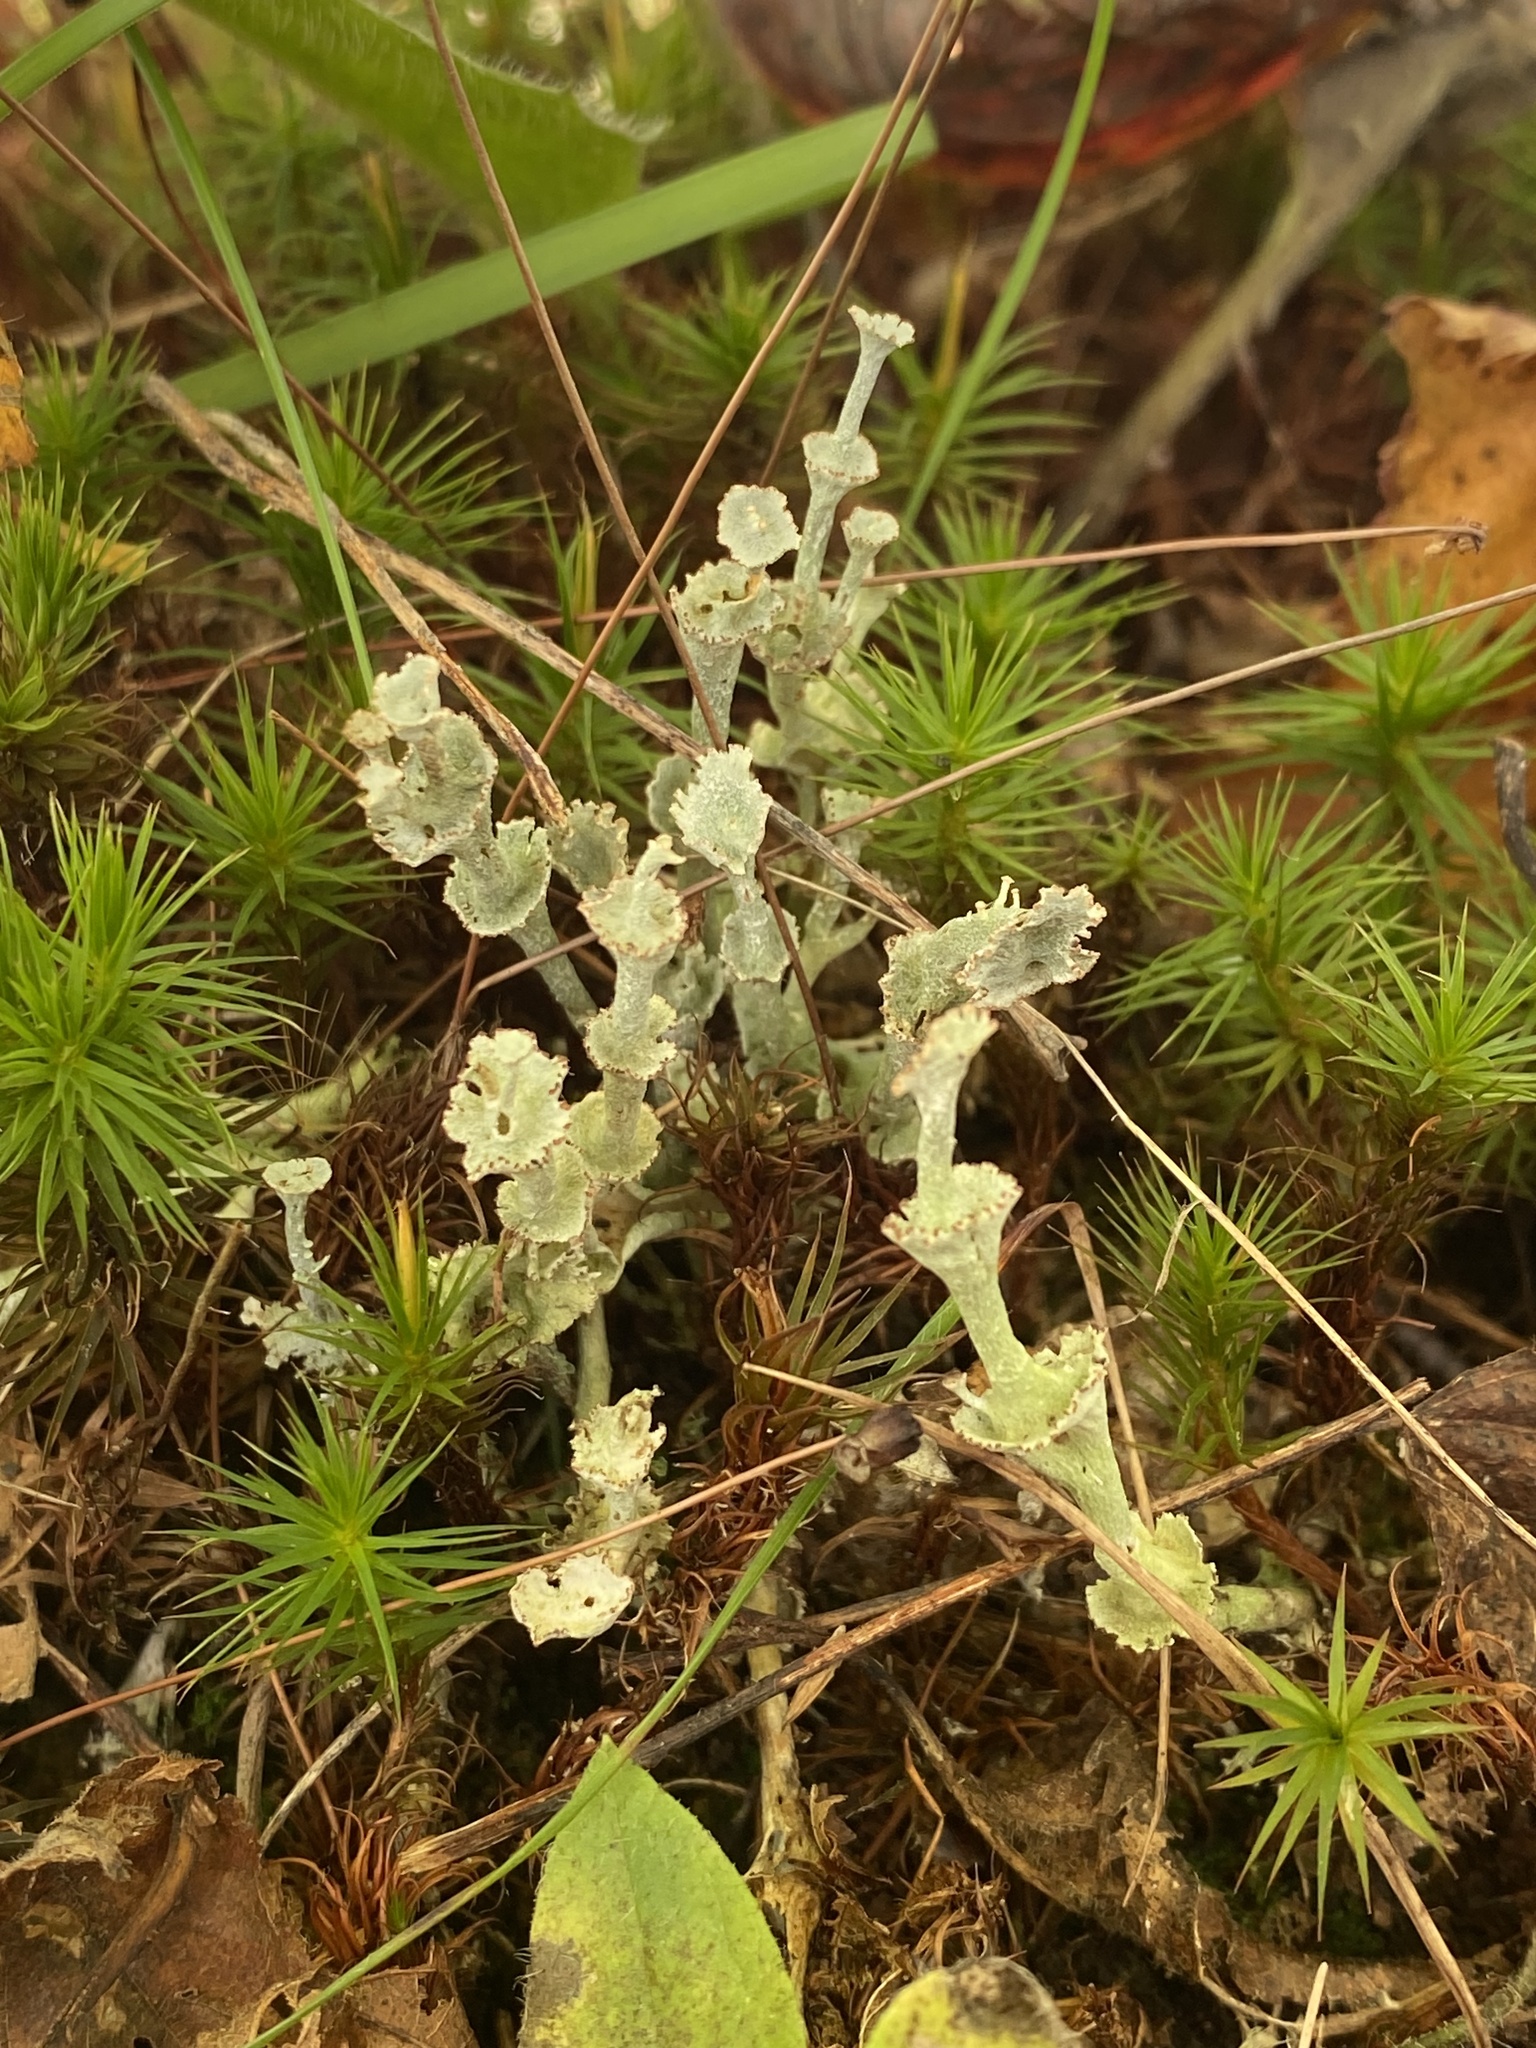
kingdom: Fungi
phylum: Ascomycota
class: Lecanoromycetes
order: Lecanorales
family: Cladoniaceae
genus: Cladonia
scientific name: Cladonia cervicornis
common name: Browned pixie-cup lichen
